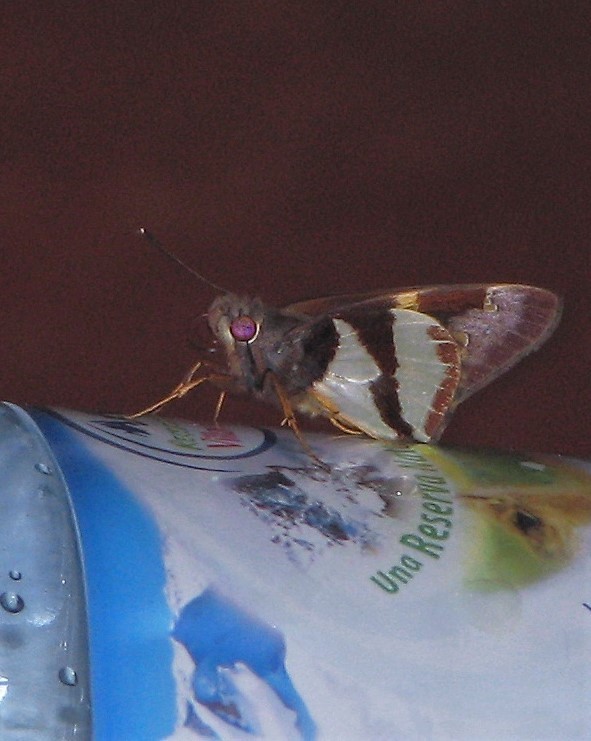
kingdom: Animalia
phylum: Arthropoda
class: Insecta
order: Lepidoptera
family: Hesperiidae
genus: Lycas
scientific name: Lycas argentea
